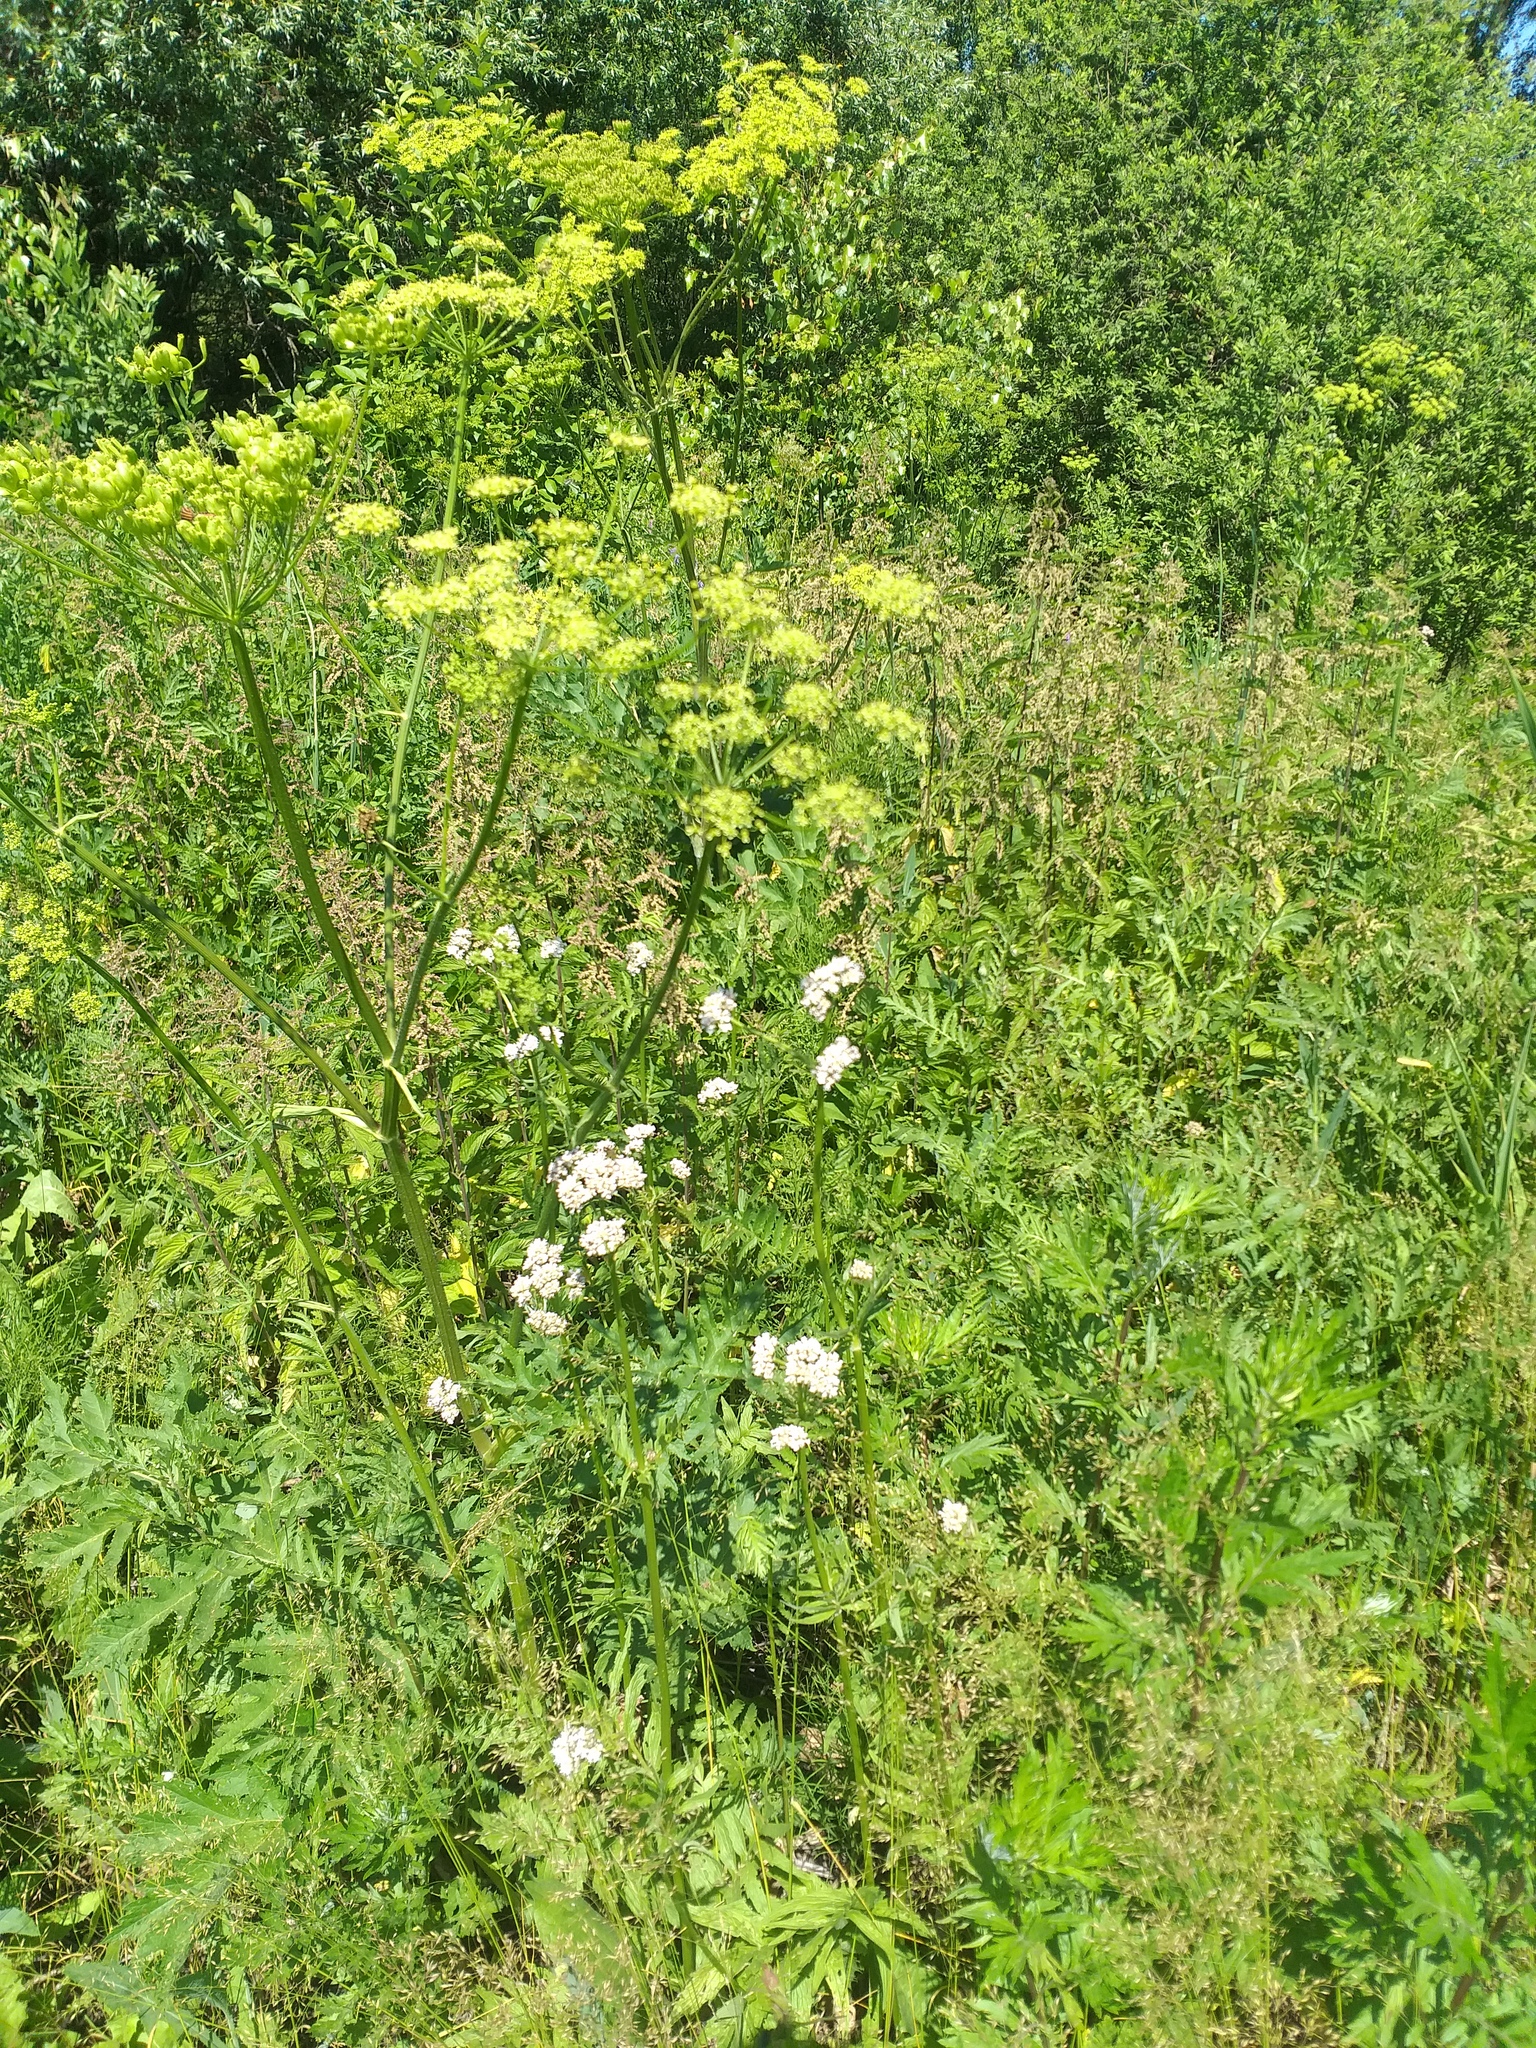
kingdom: Plantae
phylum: Tracheophyta
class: Magnoliopsida
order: Dipsacales
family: Caprifoliaceae
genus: Valeriana
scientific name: Valeriana officinalis
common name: Common valerian
